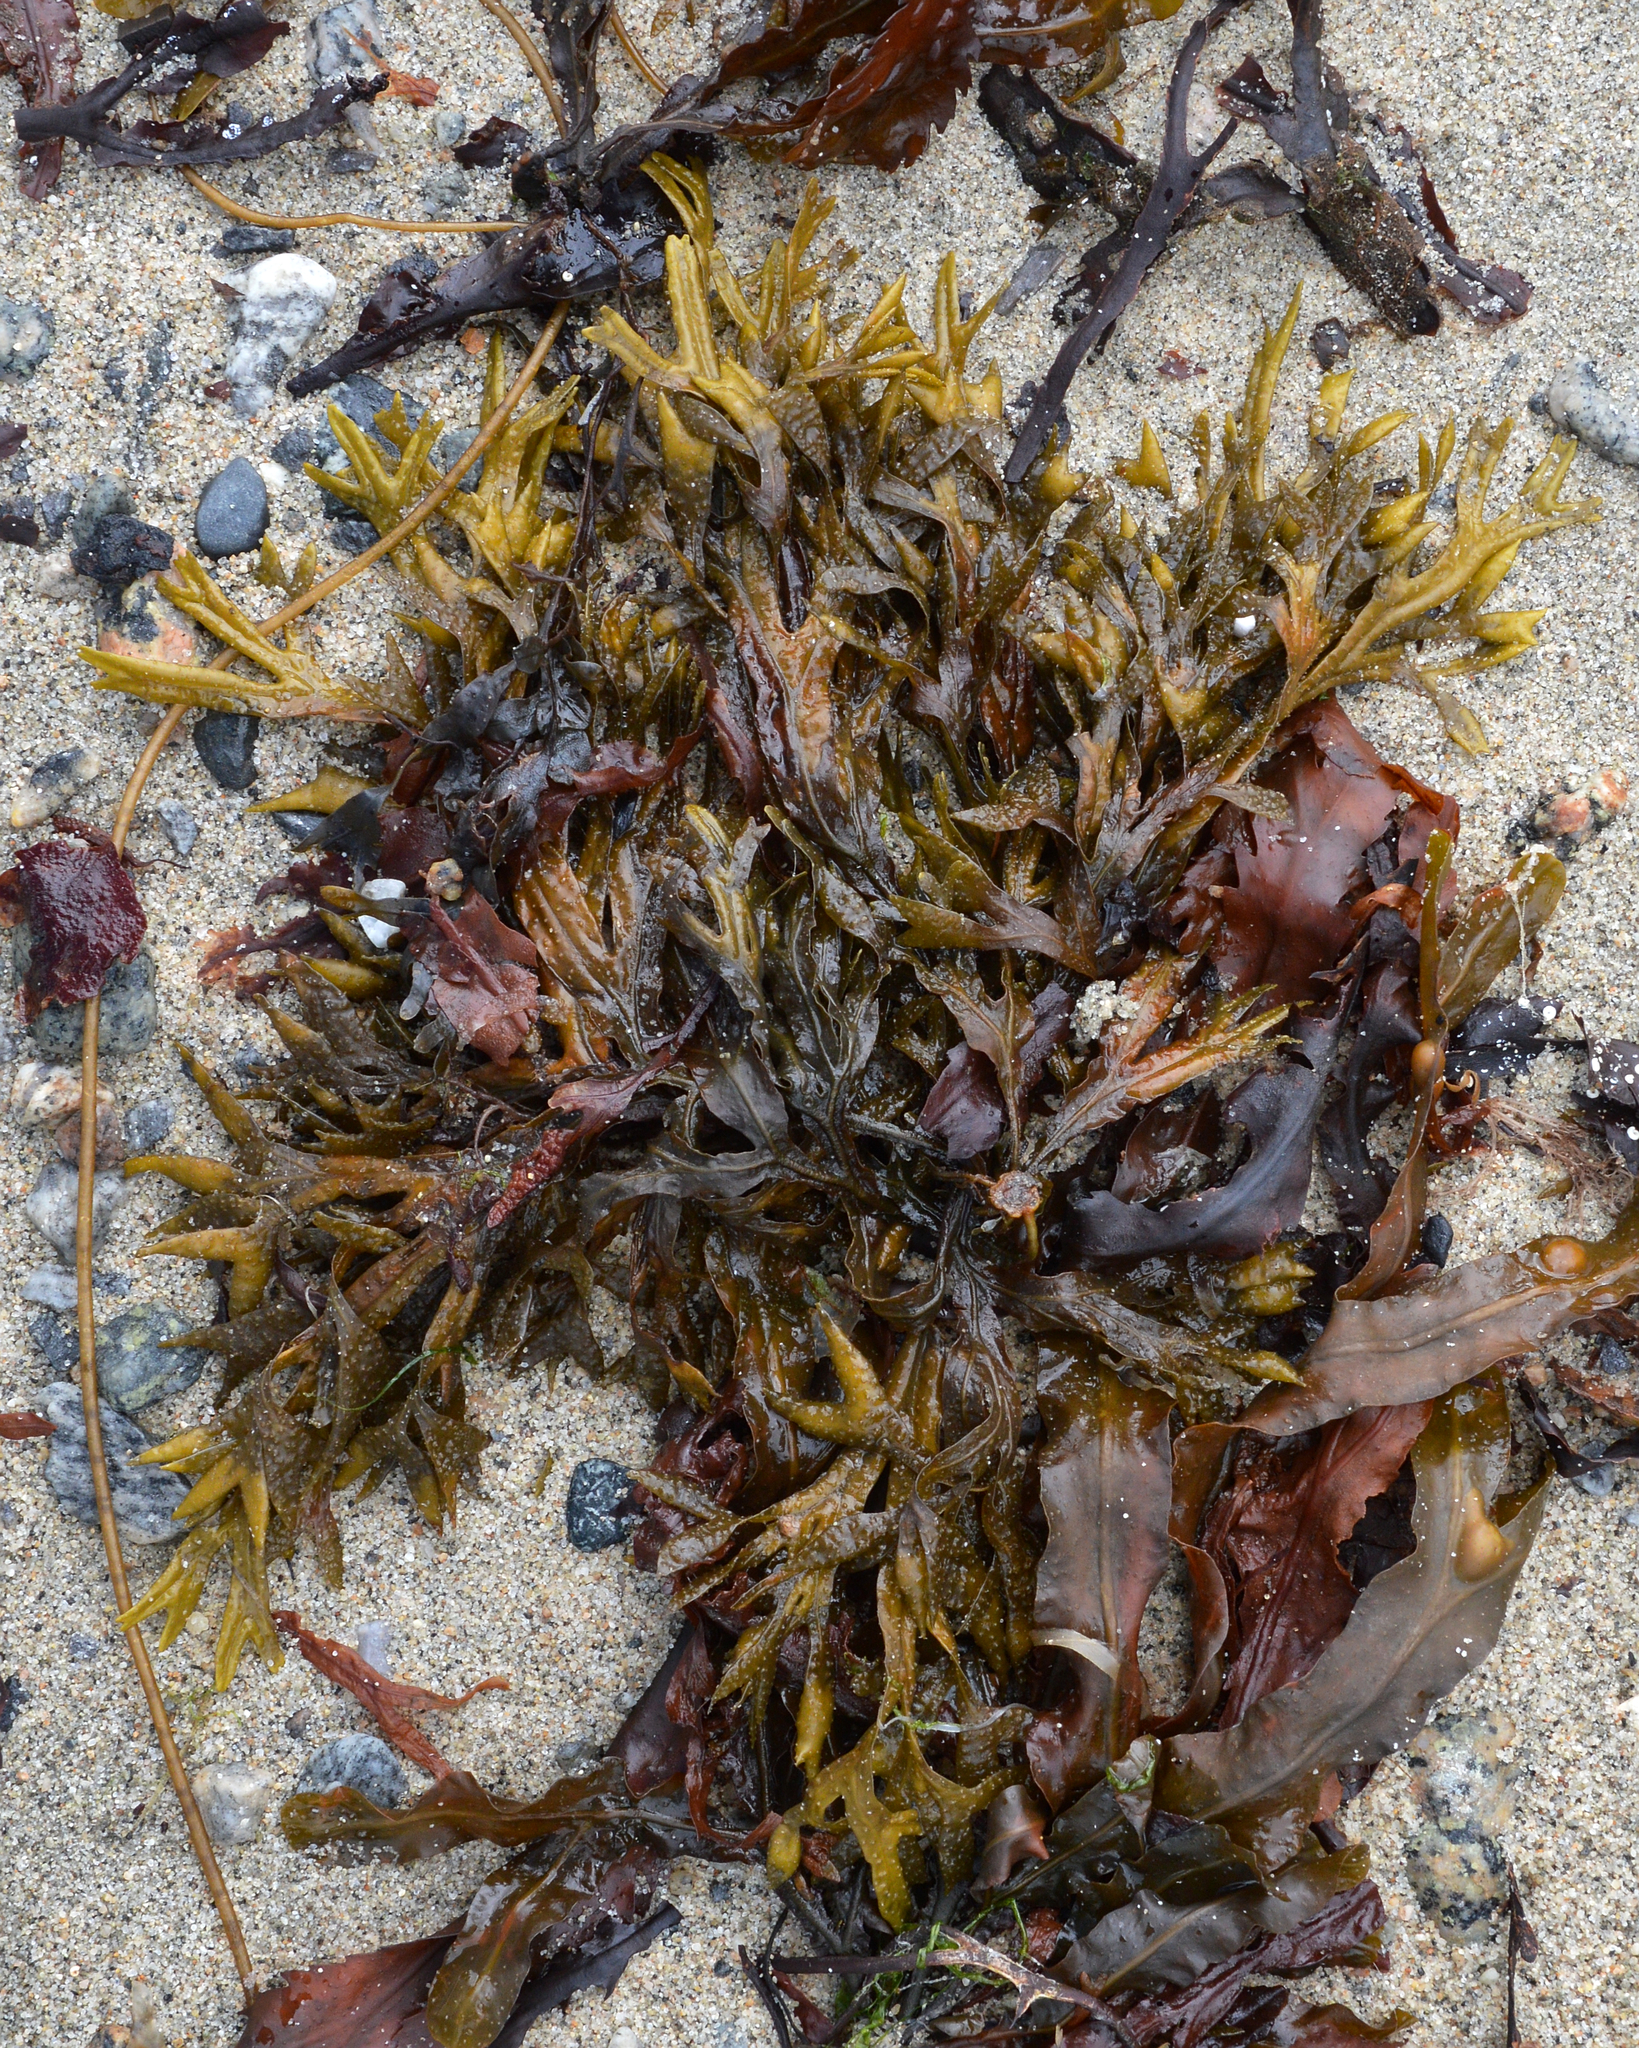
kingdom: Chromista
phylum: Ochrophyta
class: Phaeophyceae
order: Fucales
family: Fucaceae
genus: Fucus
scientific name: Fucus ceranoides
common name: Horned wrack
